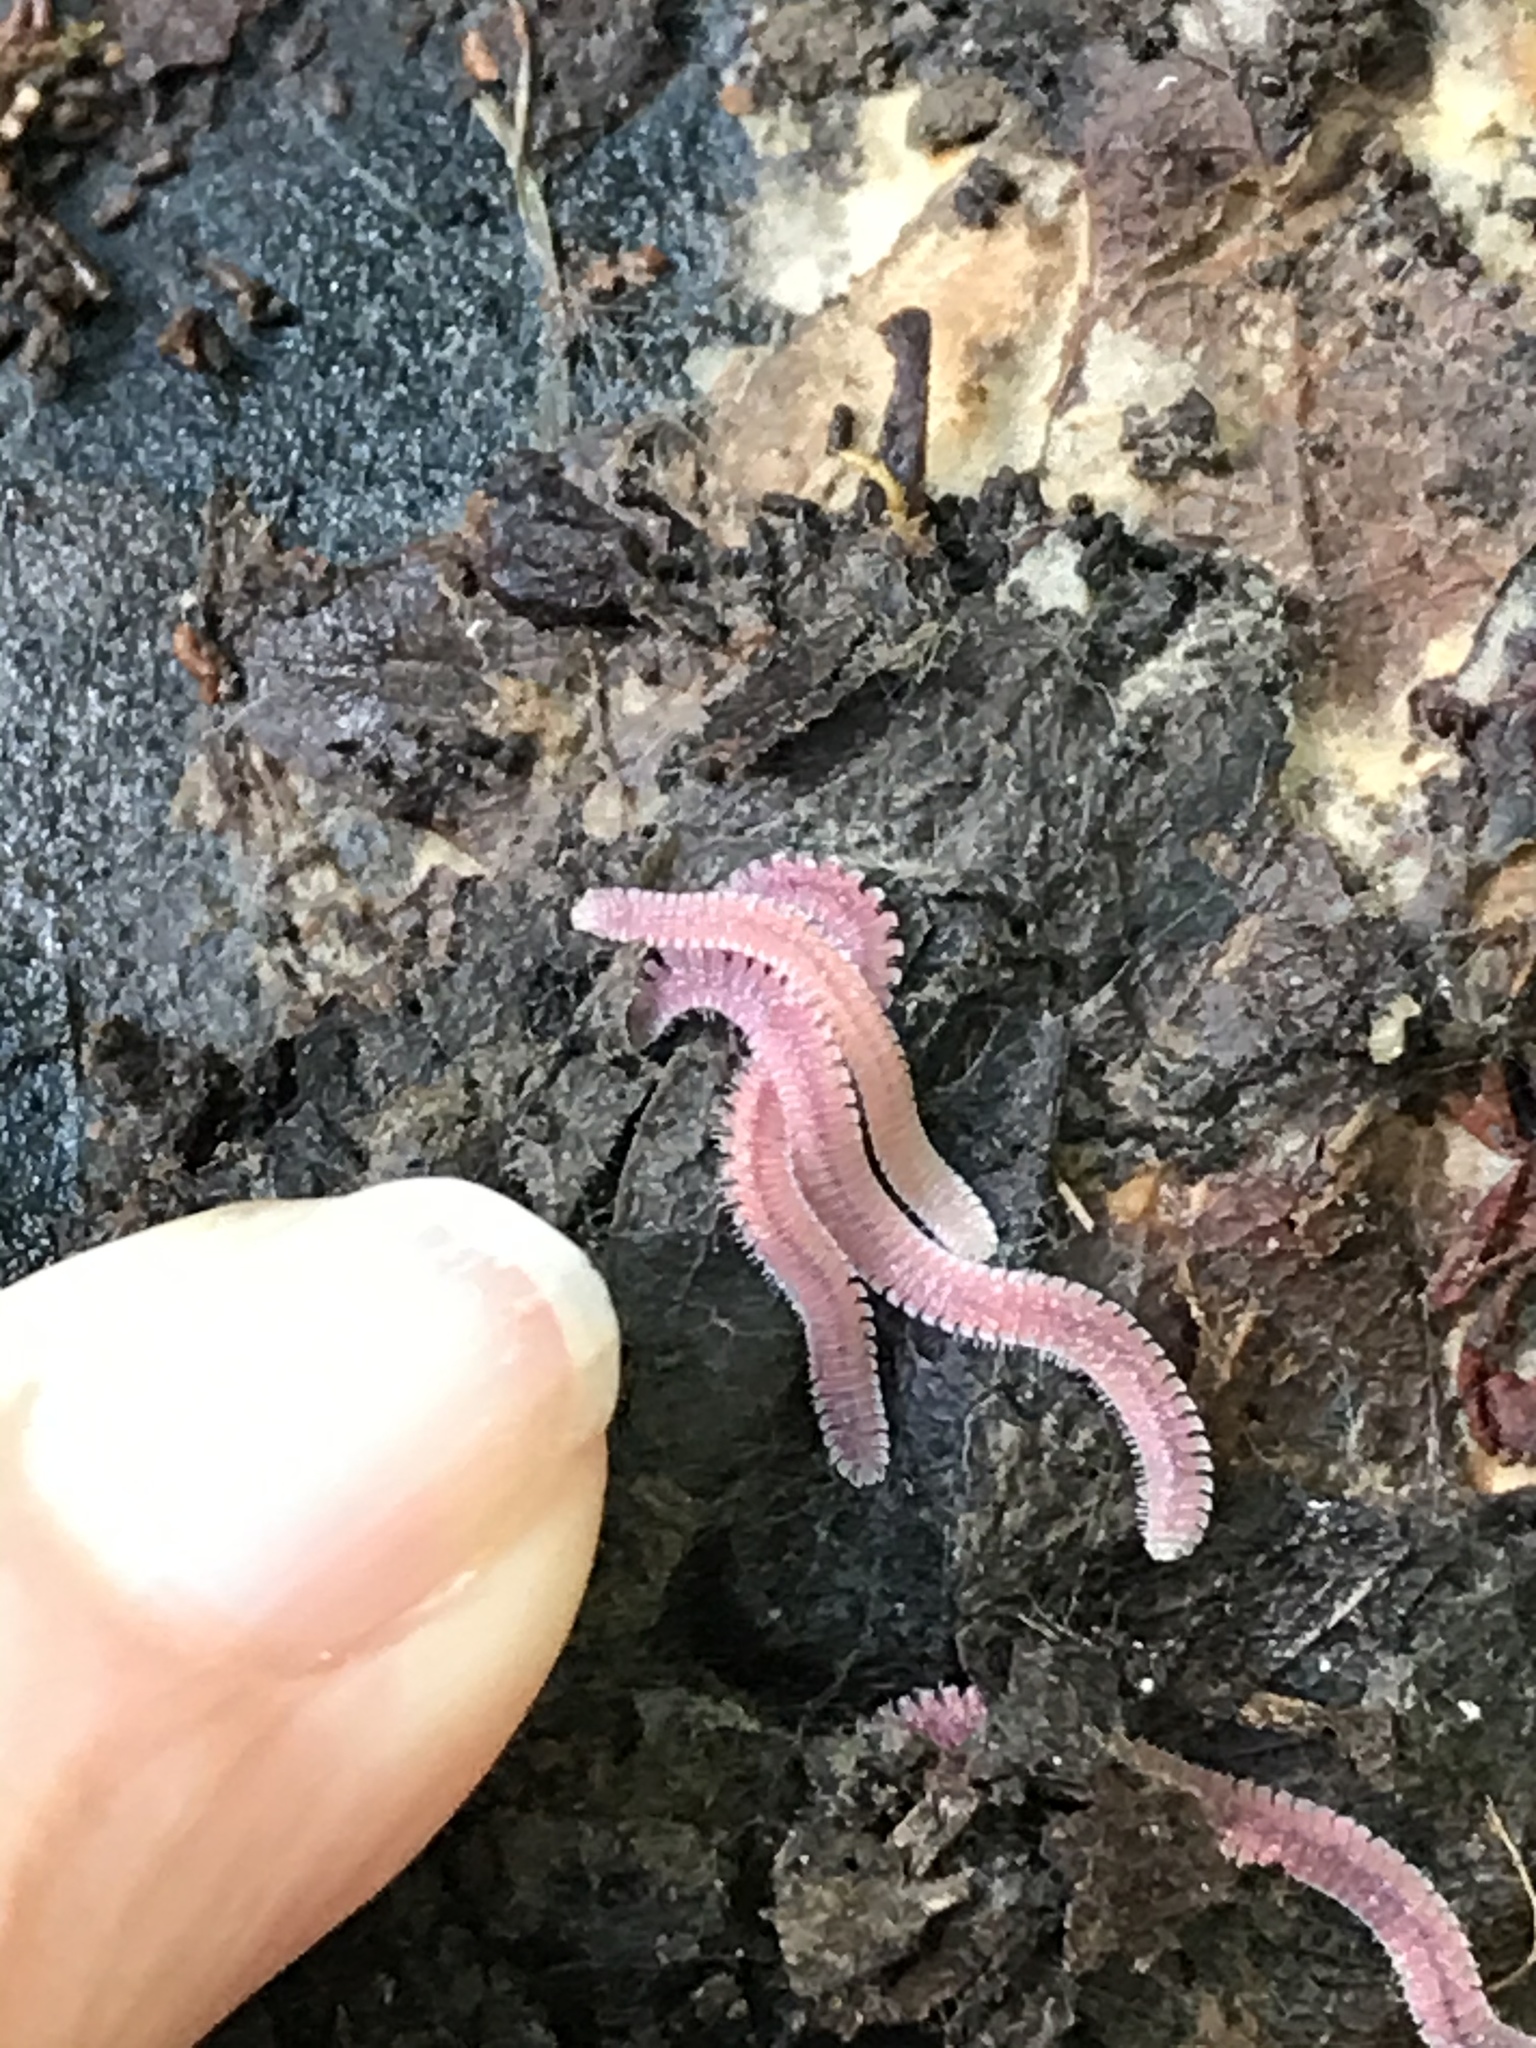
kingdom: Animalia
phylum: Arthropoda
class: Diplopoda
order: Platydesmida
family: Andrognathidae
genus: Gosodesmus
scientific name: Gosodesmus claremontus
